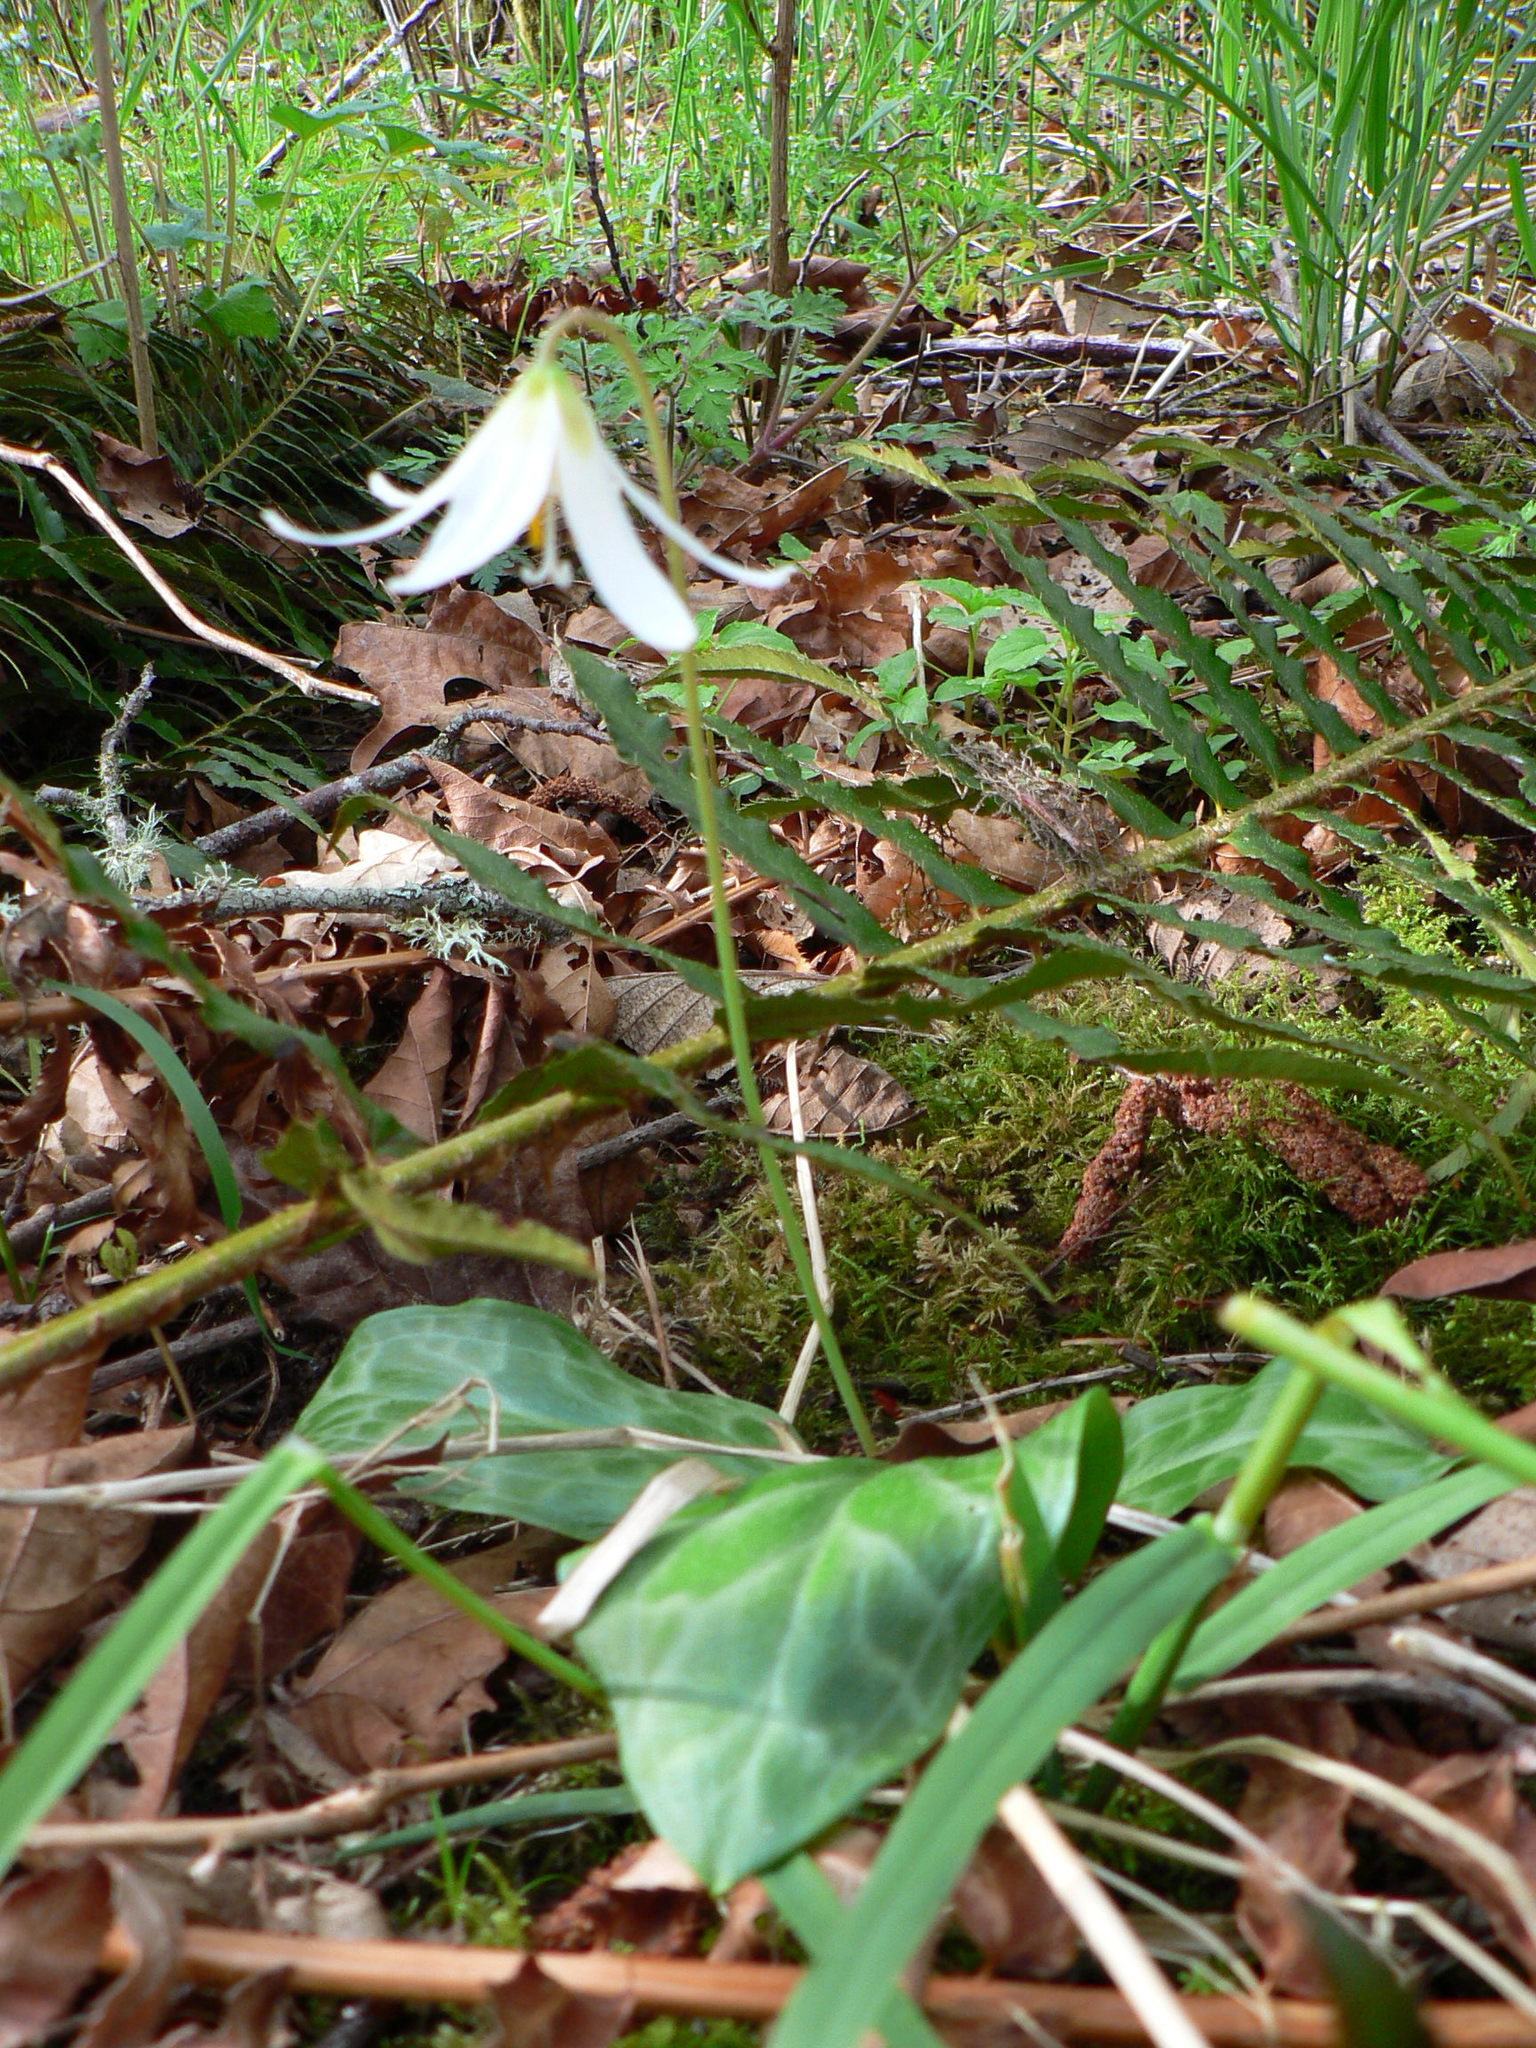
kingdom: Plantae
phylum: Tracheophyta
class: Liliopsida
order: Liliales
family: Liliaceae
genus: Erythronium
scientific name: Erythronium oregonum
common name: Giant adder's-tongue
